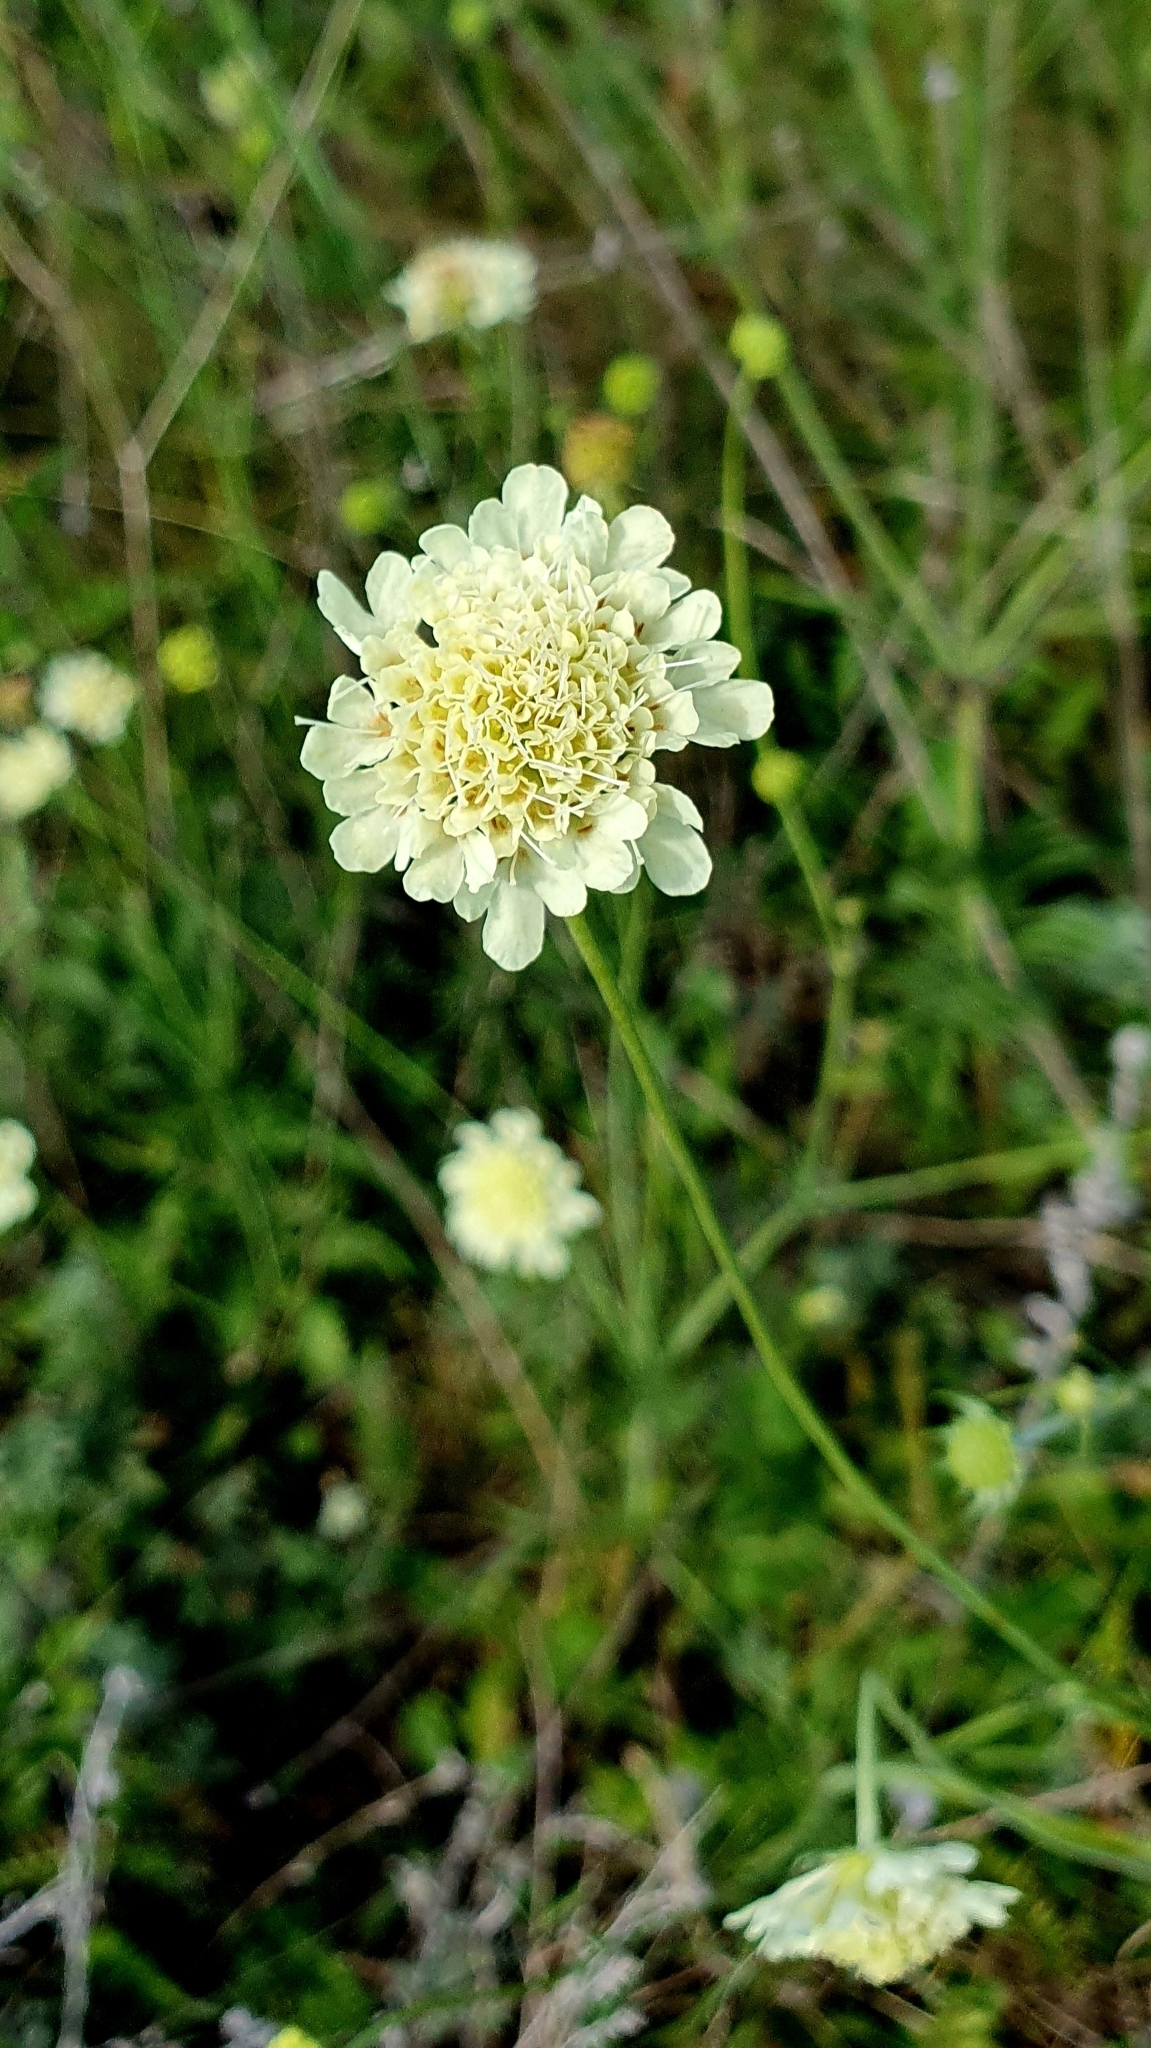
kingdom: Plantae
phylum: Tracheophyta
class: Magnoliopsida
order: Dipsacales
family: Caprifoliaceae
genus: Scabiosa
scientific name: Scabiosa ochroleuca
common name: Cream pincushions
